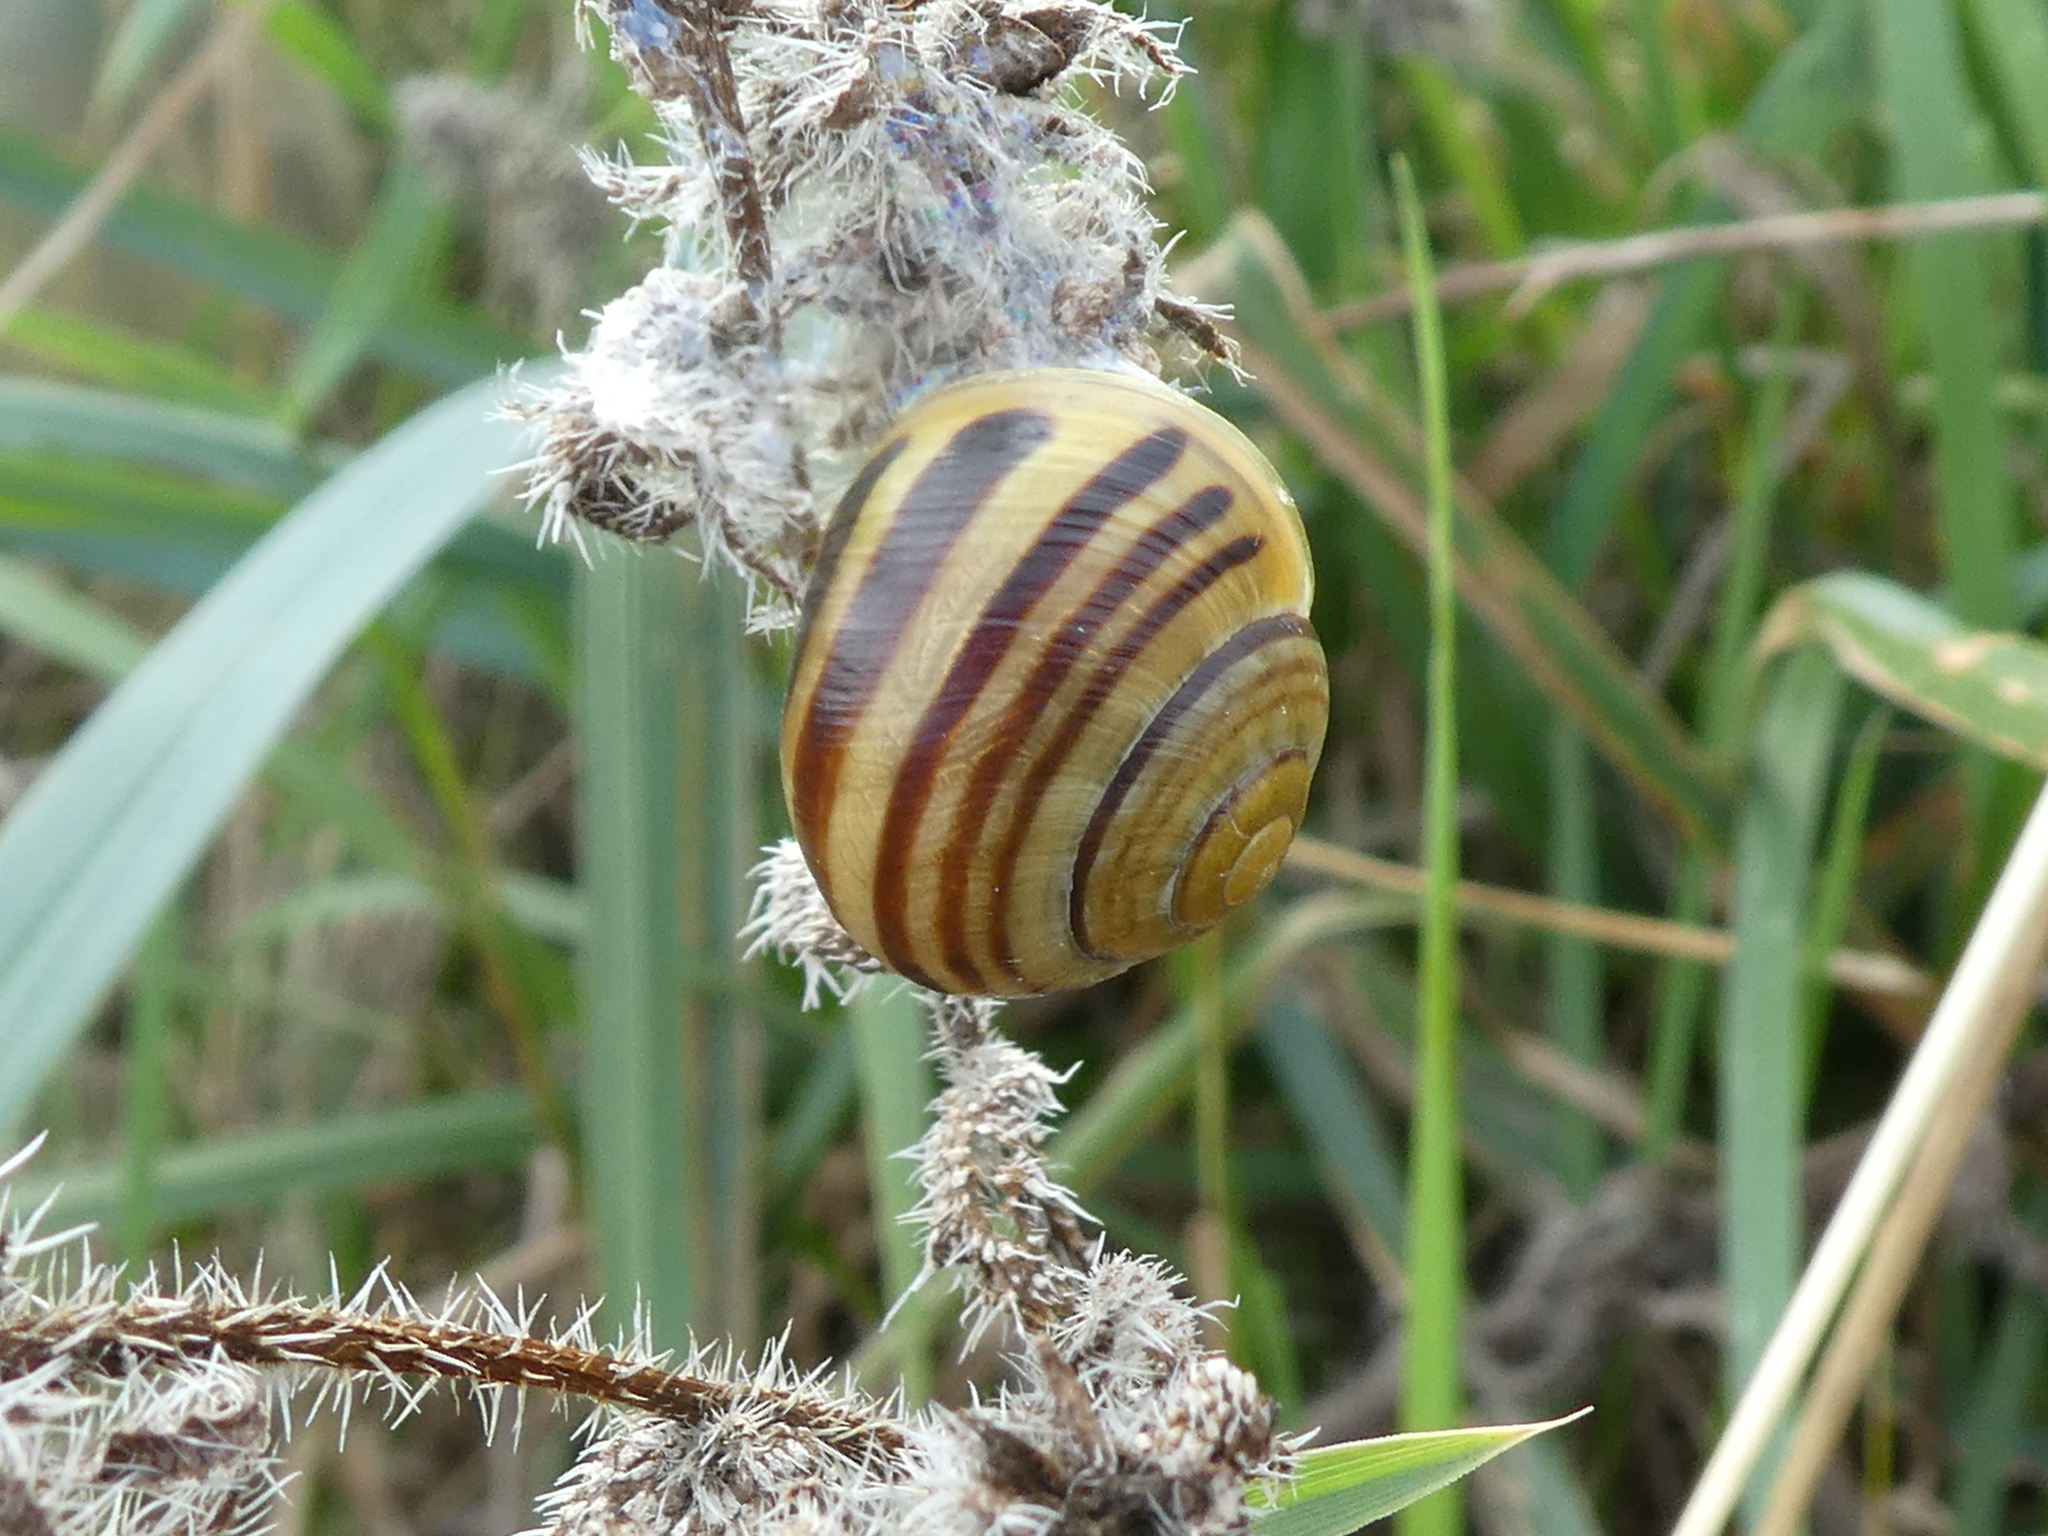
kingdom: Animalia
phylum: Mollusca
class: Gastropoda
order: Stylommatophora
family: Helicidae
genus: Cepaea
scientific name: Cepaea
